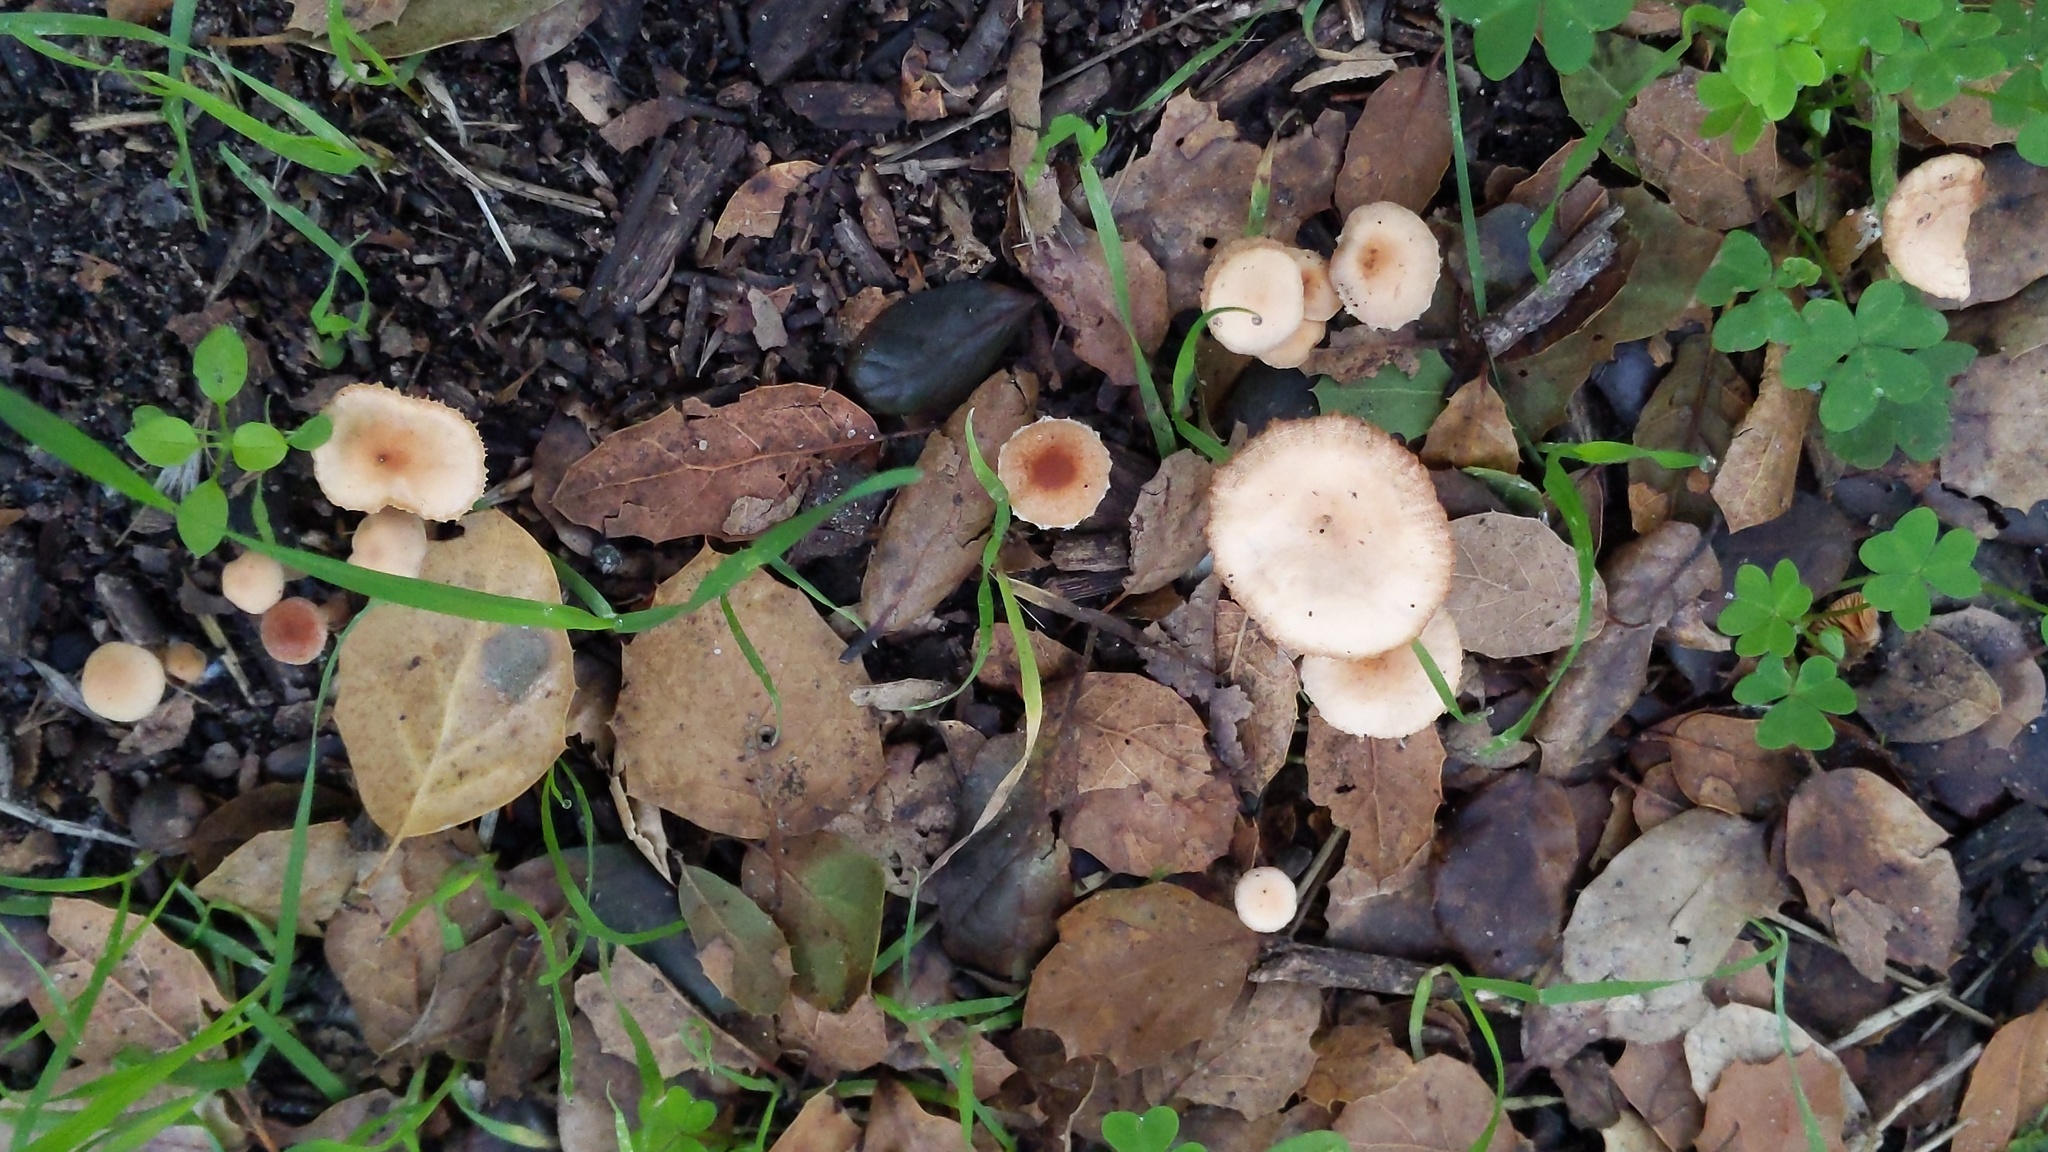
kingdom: Fungi
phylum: Basidiomycota
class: Agaricomycetes
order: Agaricales
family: Tubariaceae
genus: Tubaria
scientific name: Tubaria furfuracea
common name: Scurfy twiglet
